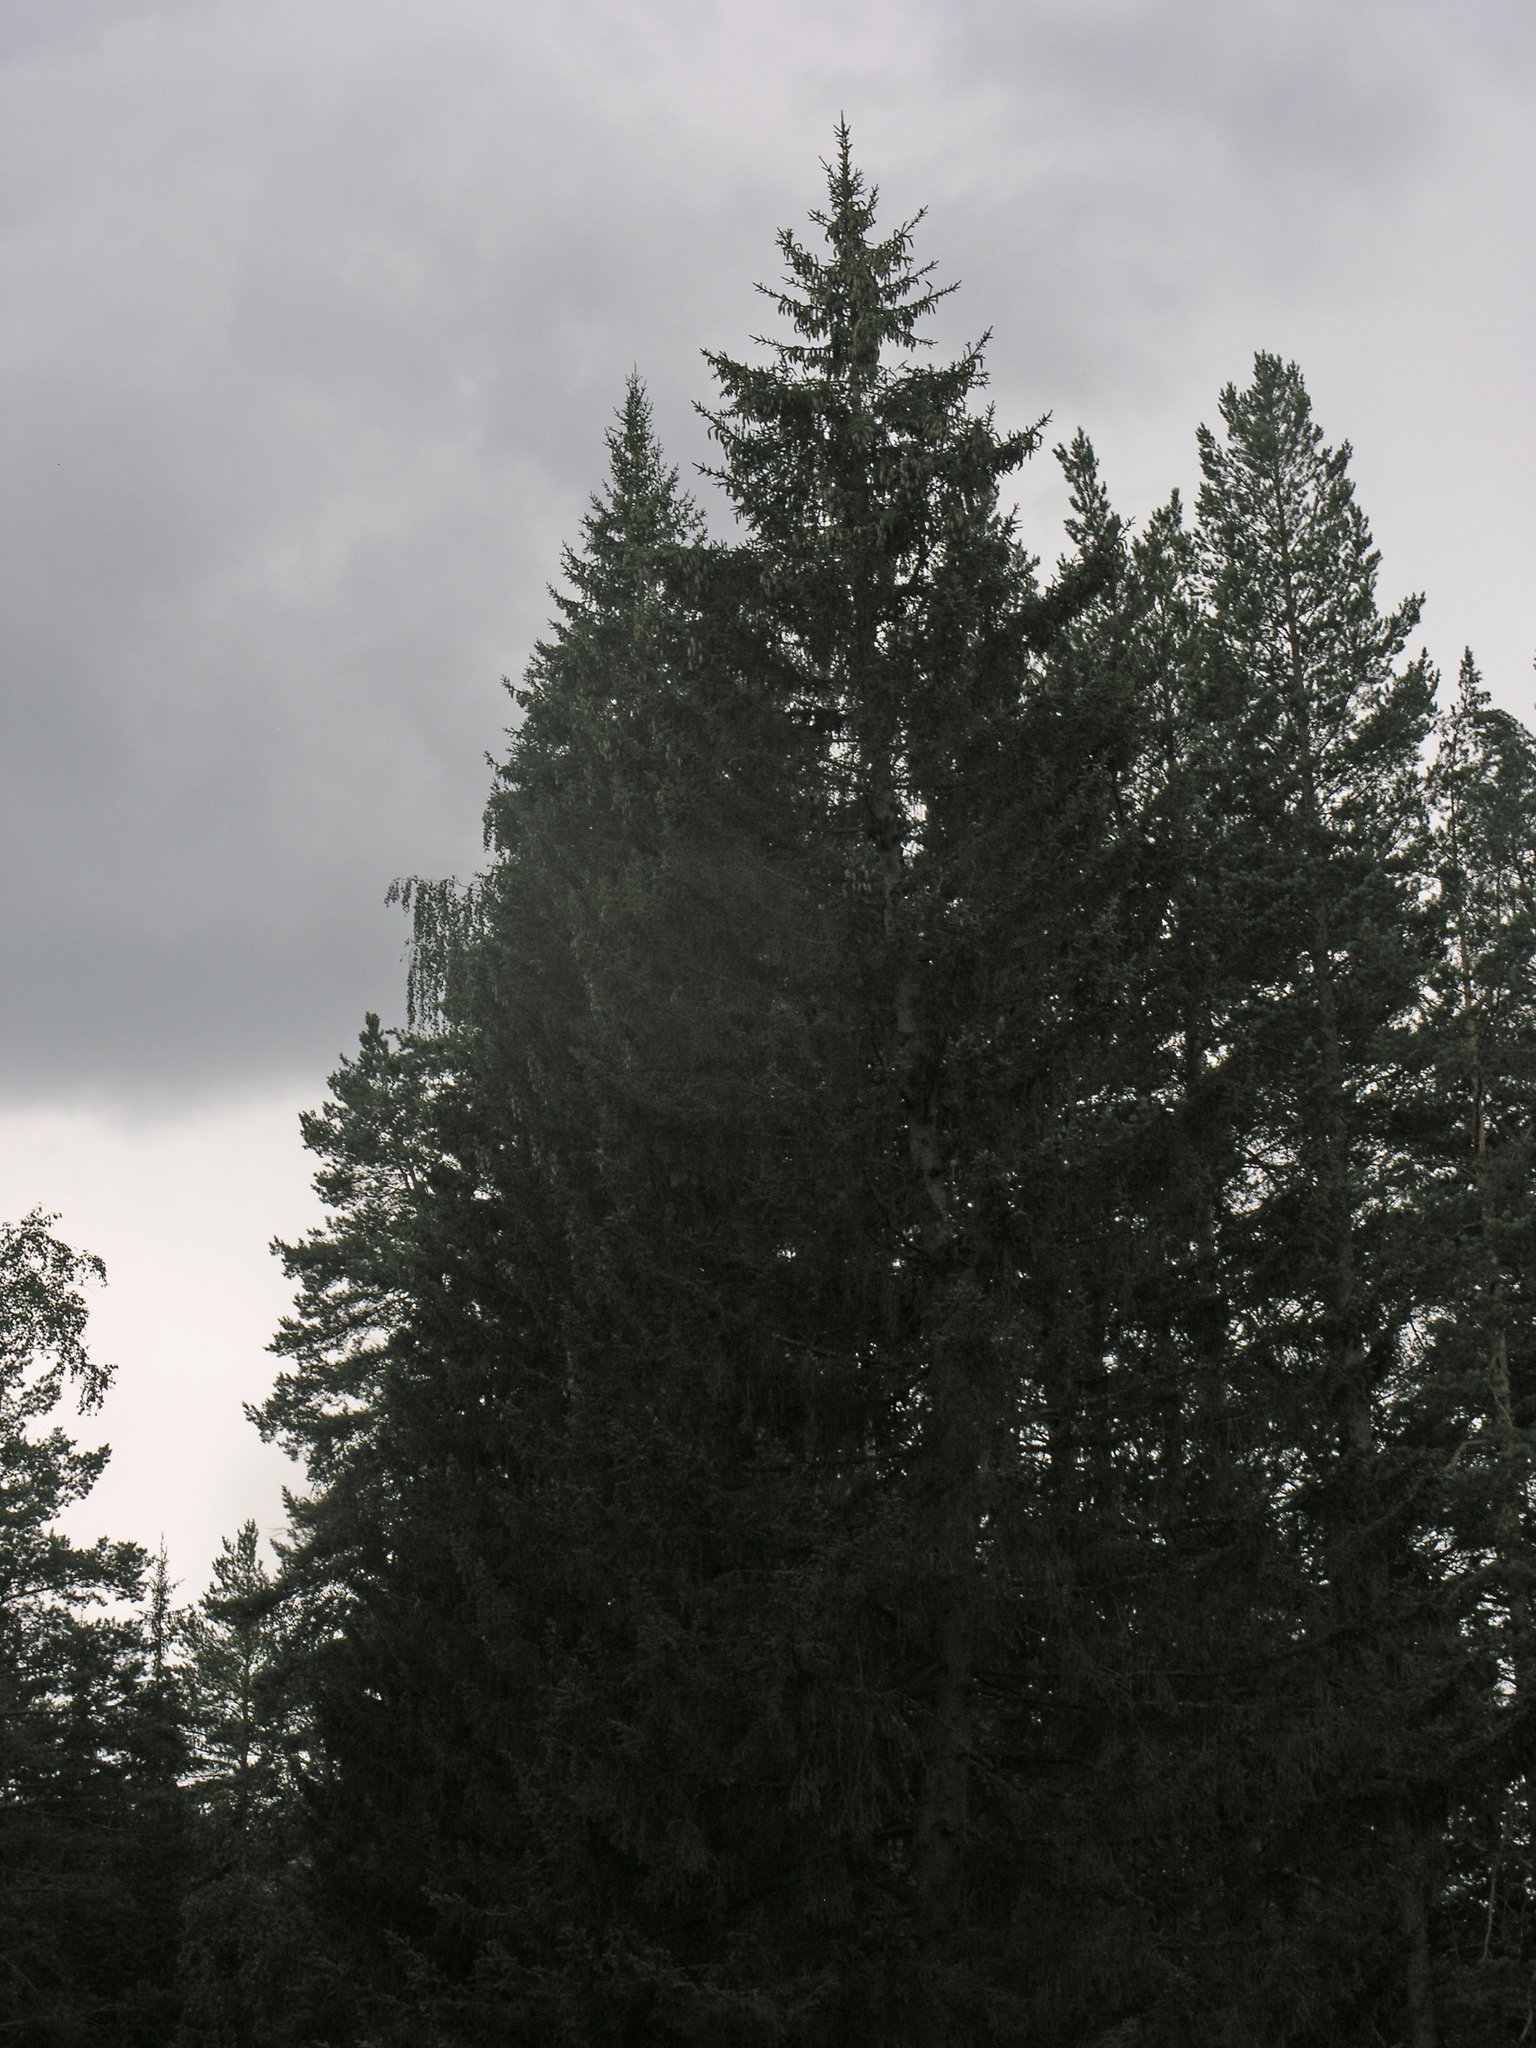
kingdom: Plantae
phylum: Tracheophyta
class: Pinopsida
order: Pinales
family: Pinaceae
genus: Picea
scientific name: Picea obovata
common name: Siberian spruce
